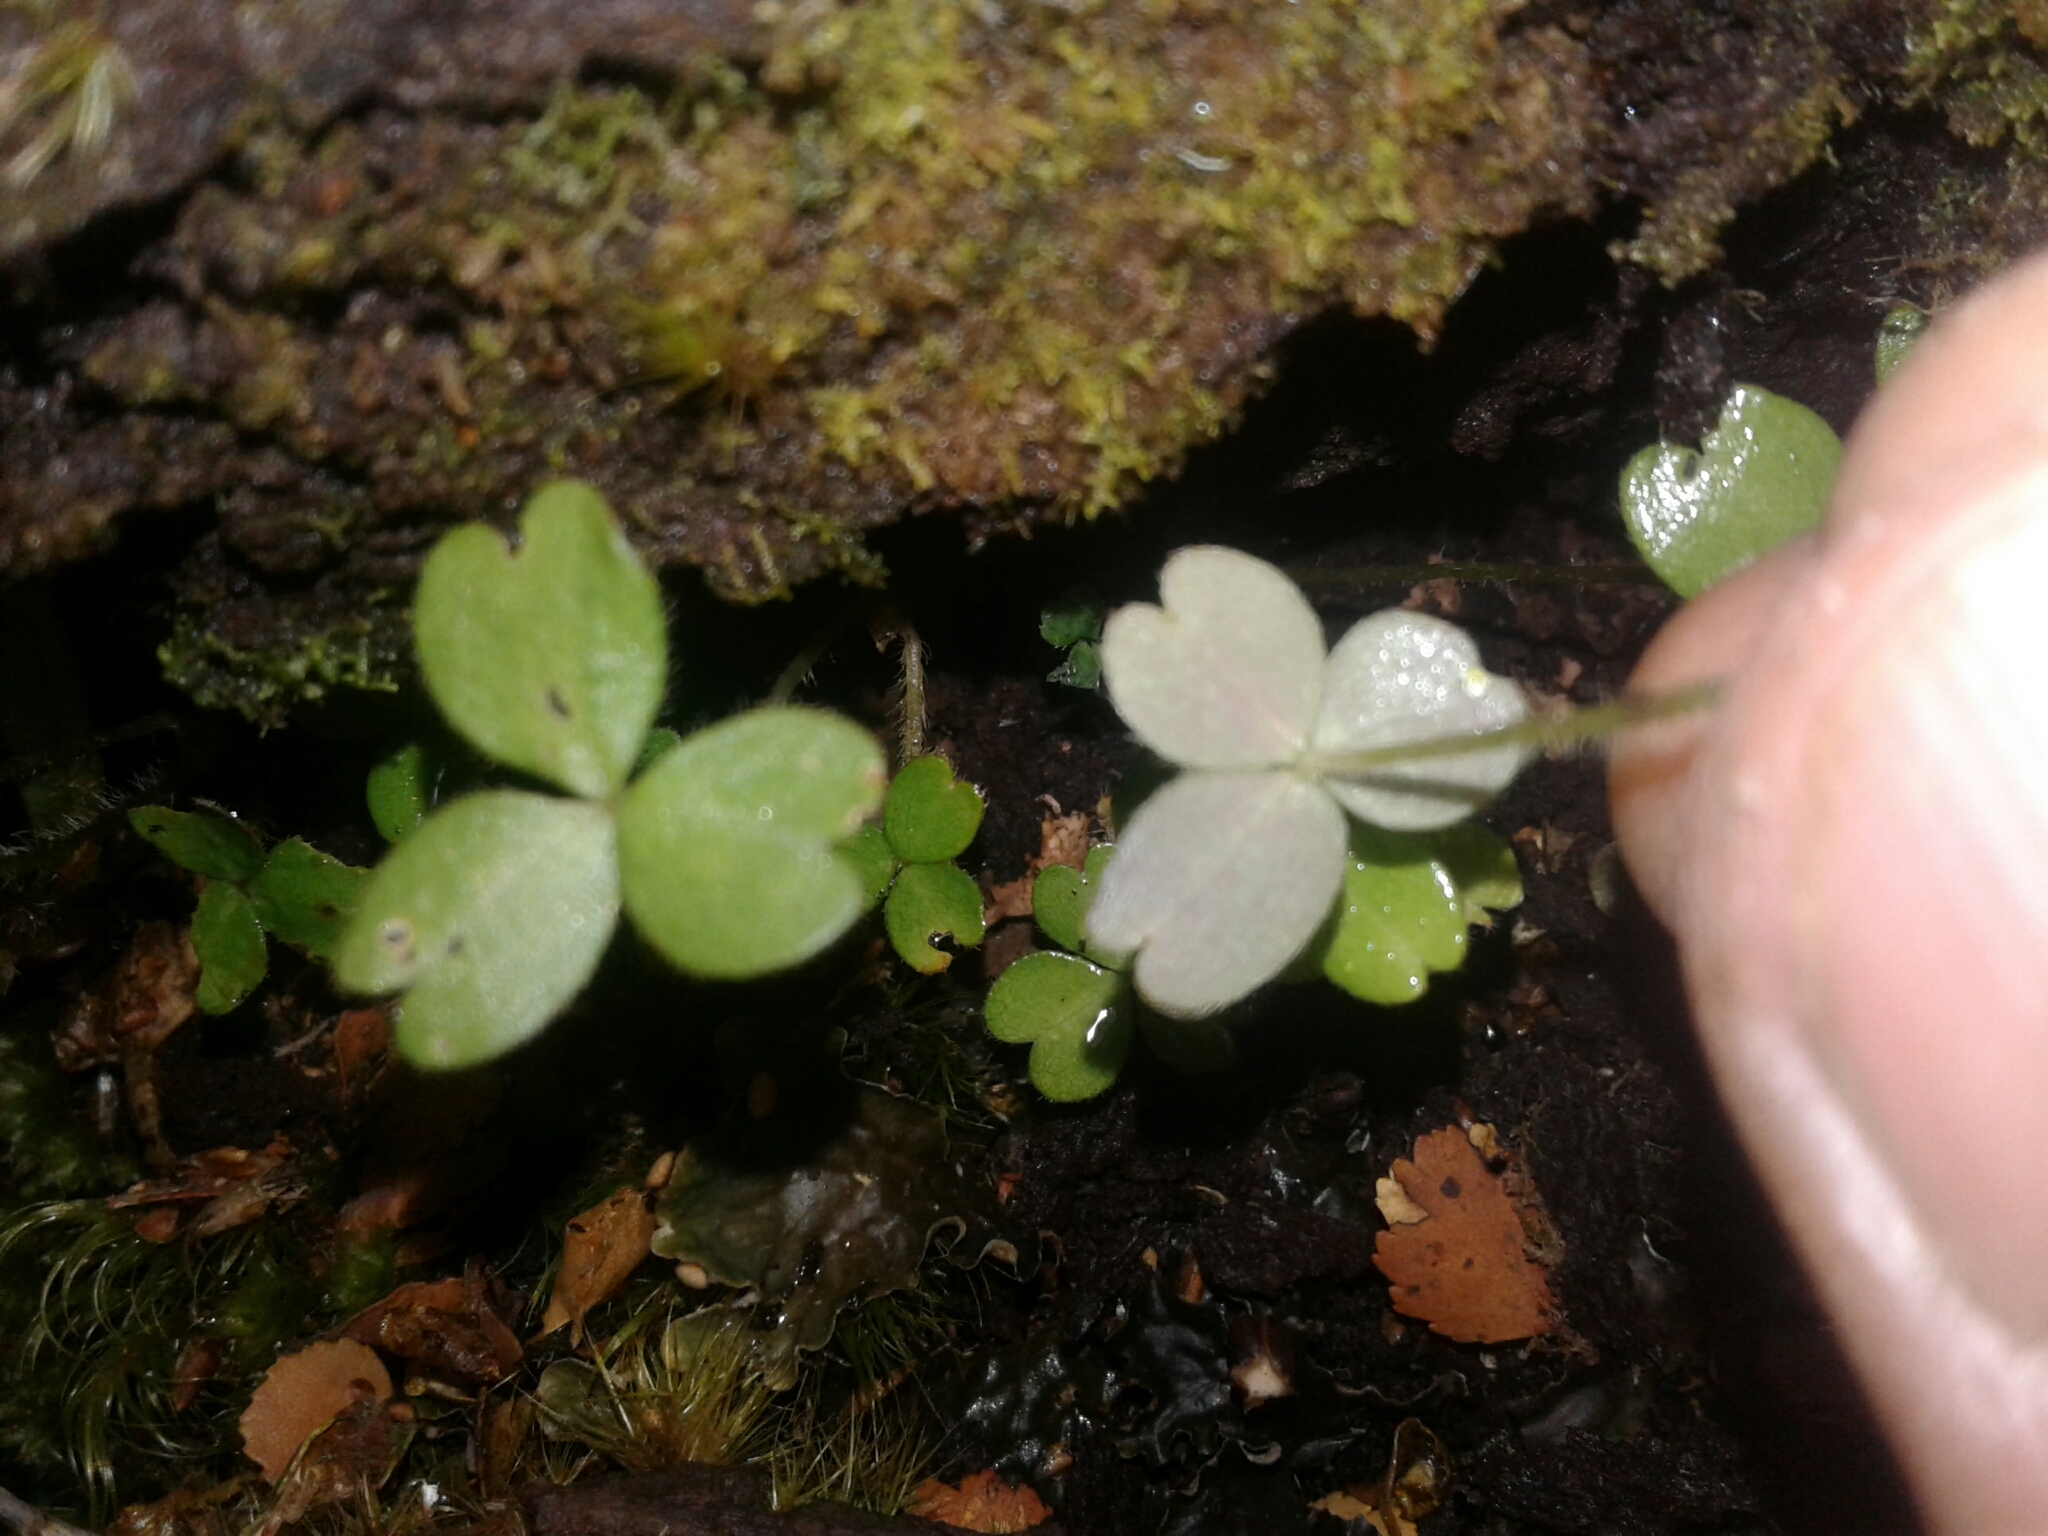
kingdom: Plantae
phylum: Tracheophyta
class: Magnoliopsida
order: Oxalidales
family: Oxalidaceae
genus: Oxalis
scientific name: Oxalis magellanica
